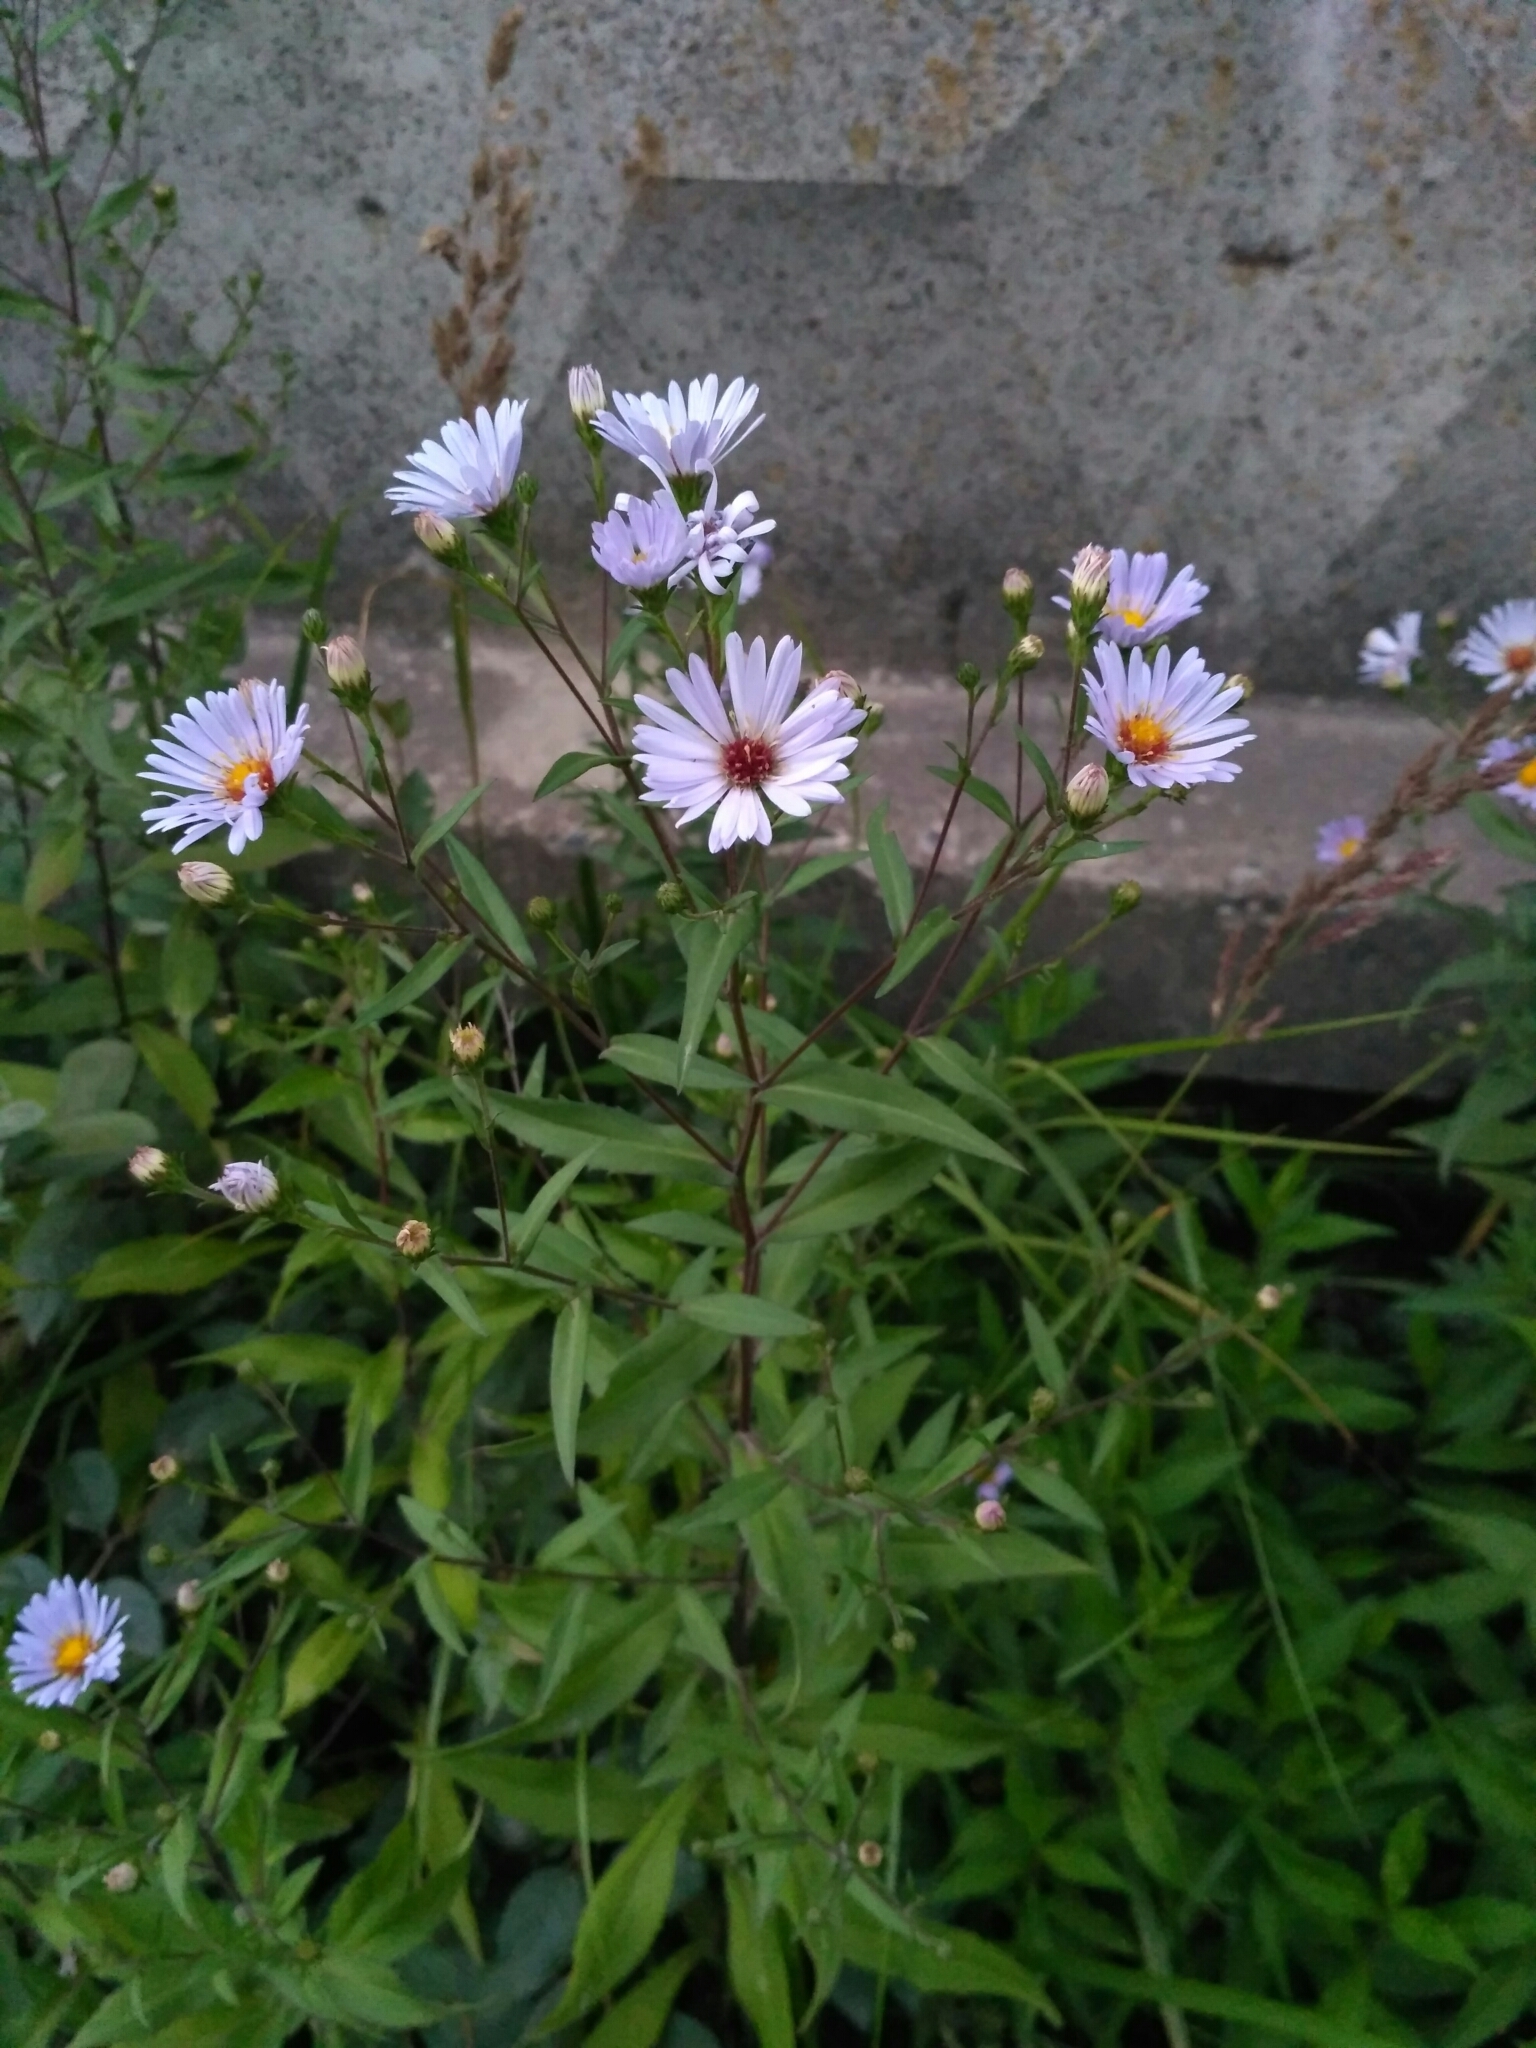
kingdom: Plantae
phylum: Tracheophyta
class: Magnoliopsida
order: Asterales
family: Asteraceae
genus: Symphyotrichum
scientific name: Symphyotrichum salignum
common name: Common michaelmas daisy
